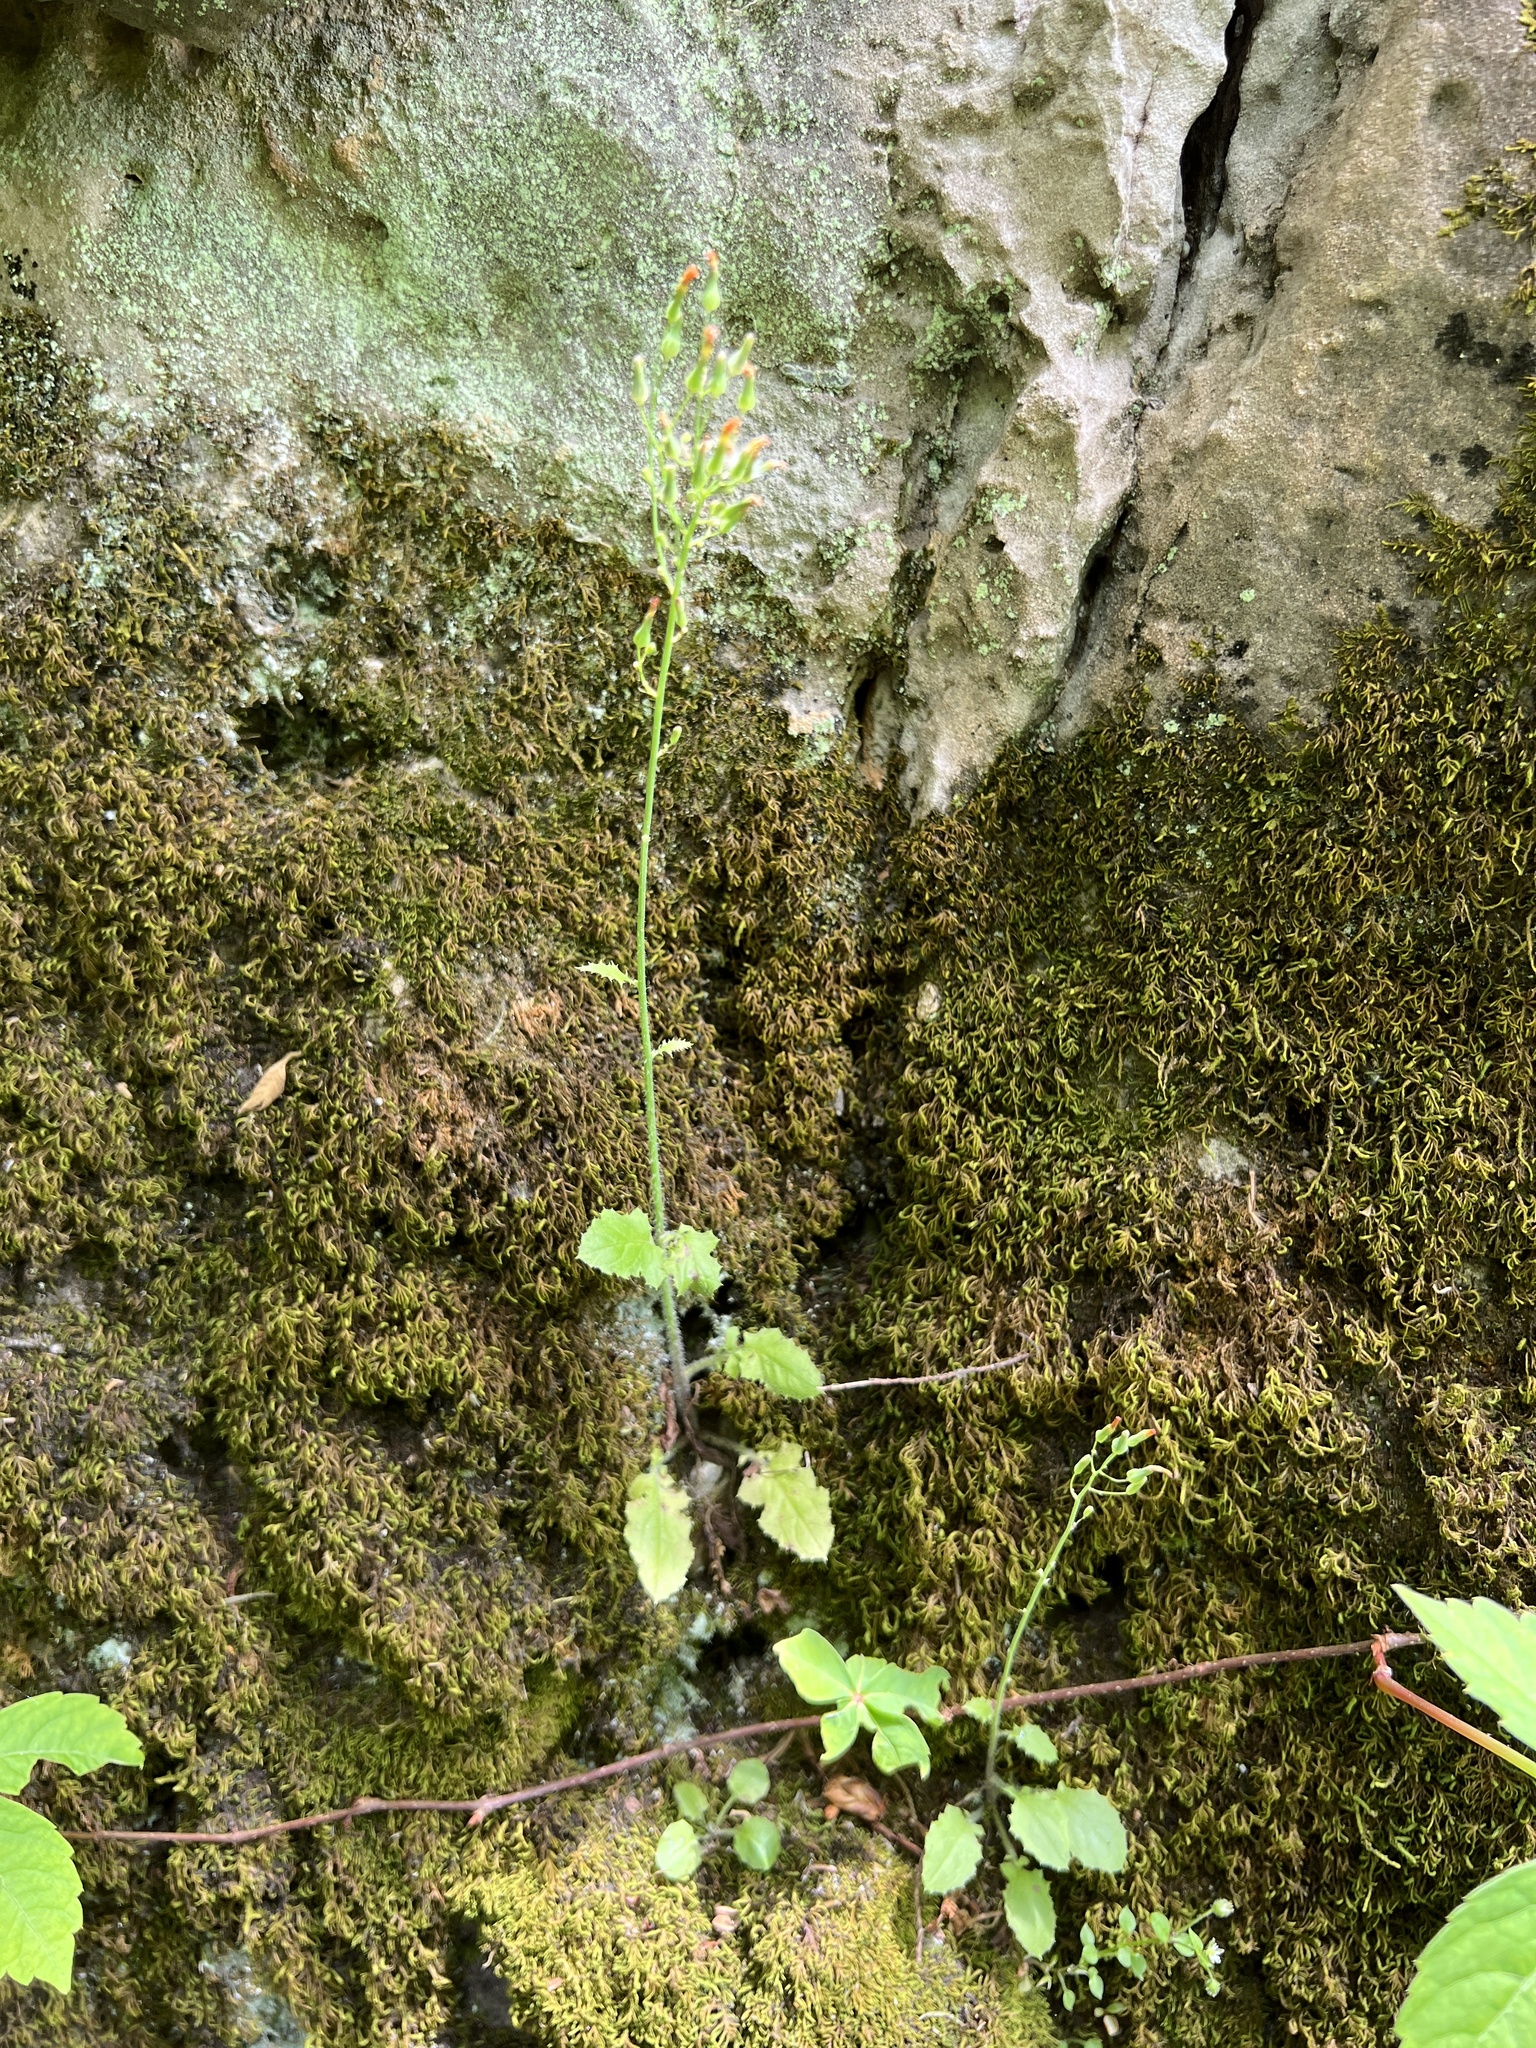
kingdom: Plantae
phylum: Tracheophyta
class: Magnoliopsida
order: Asterales
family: Asteraceae
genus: Youngia
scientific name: Youngia japonica
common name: Oriental false hawksbeard
